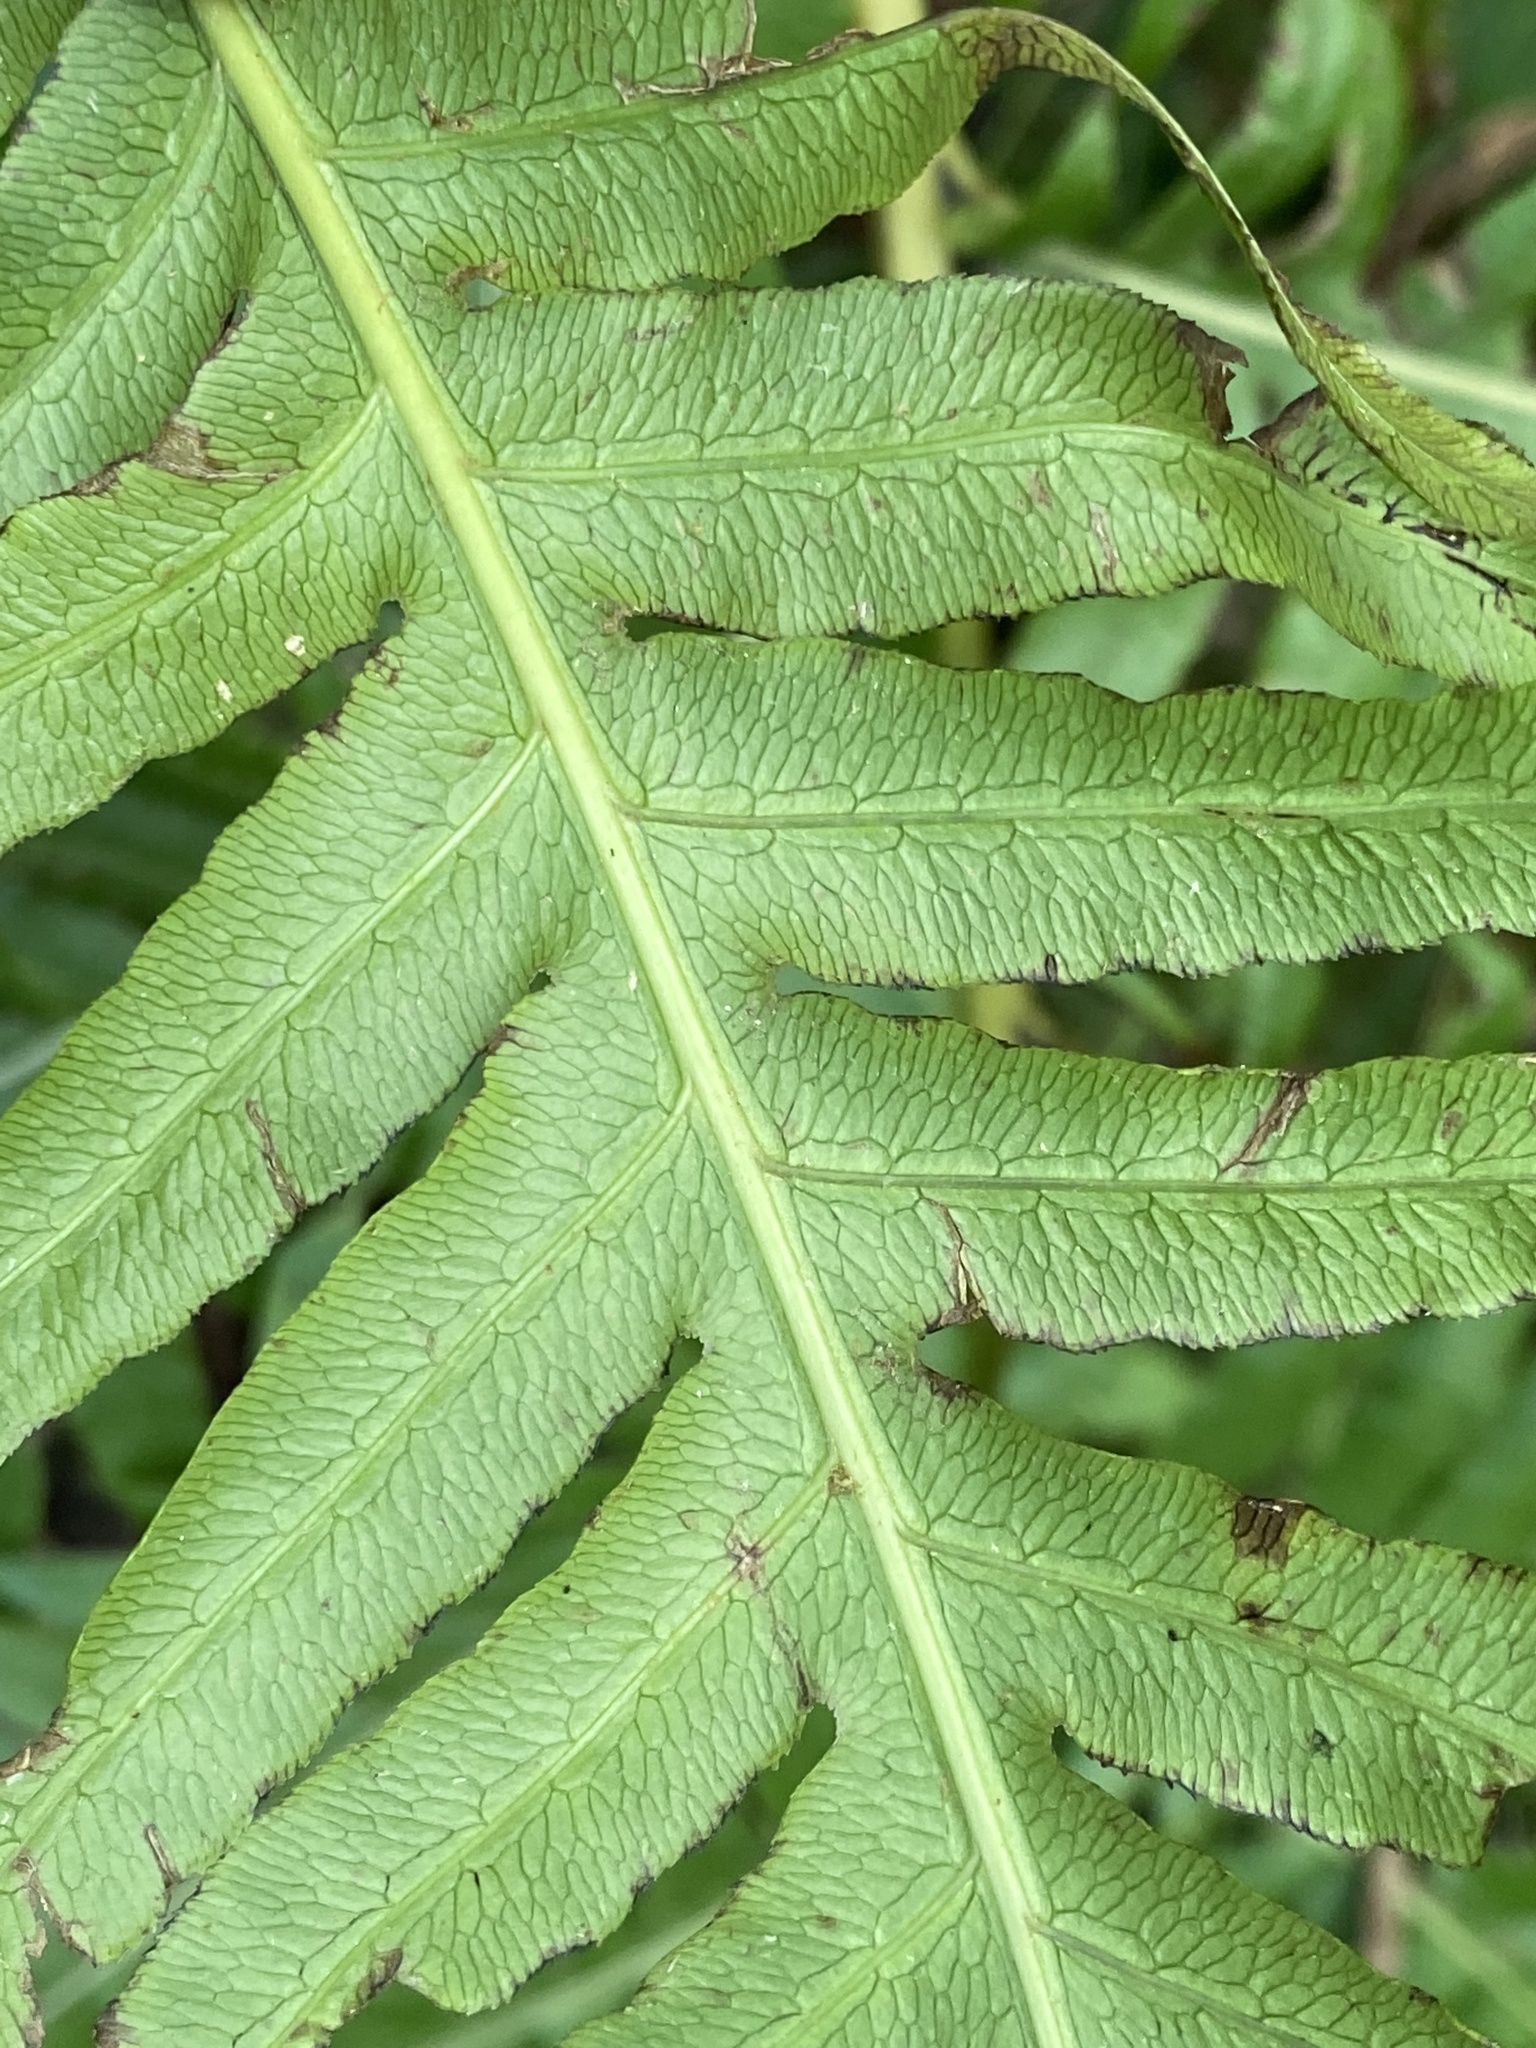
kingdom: Plantae
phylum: Tracheophyta
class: Polypodiopsida
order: Polypodiales
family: Blechnaceae
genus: Woodwardia
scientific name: Woodwardia radicans
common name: Rooting chainfern
